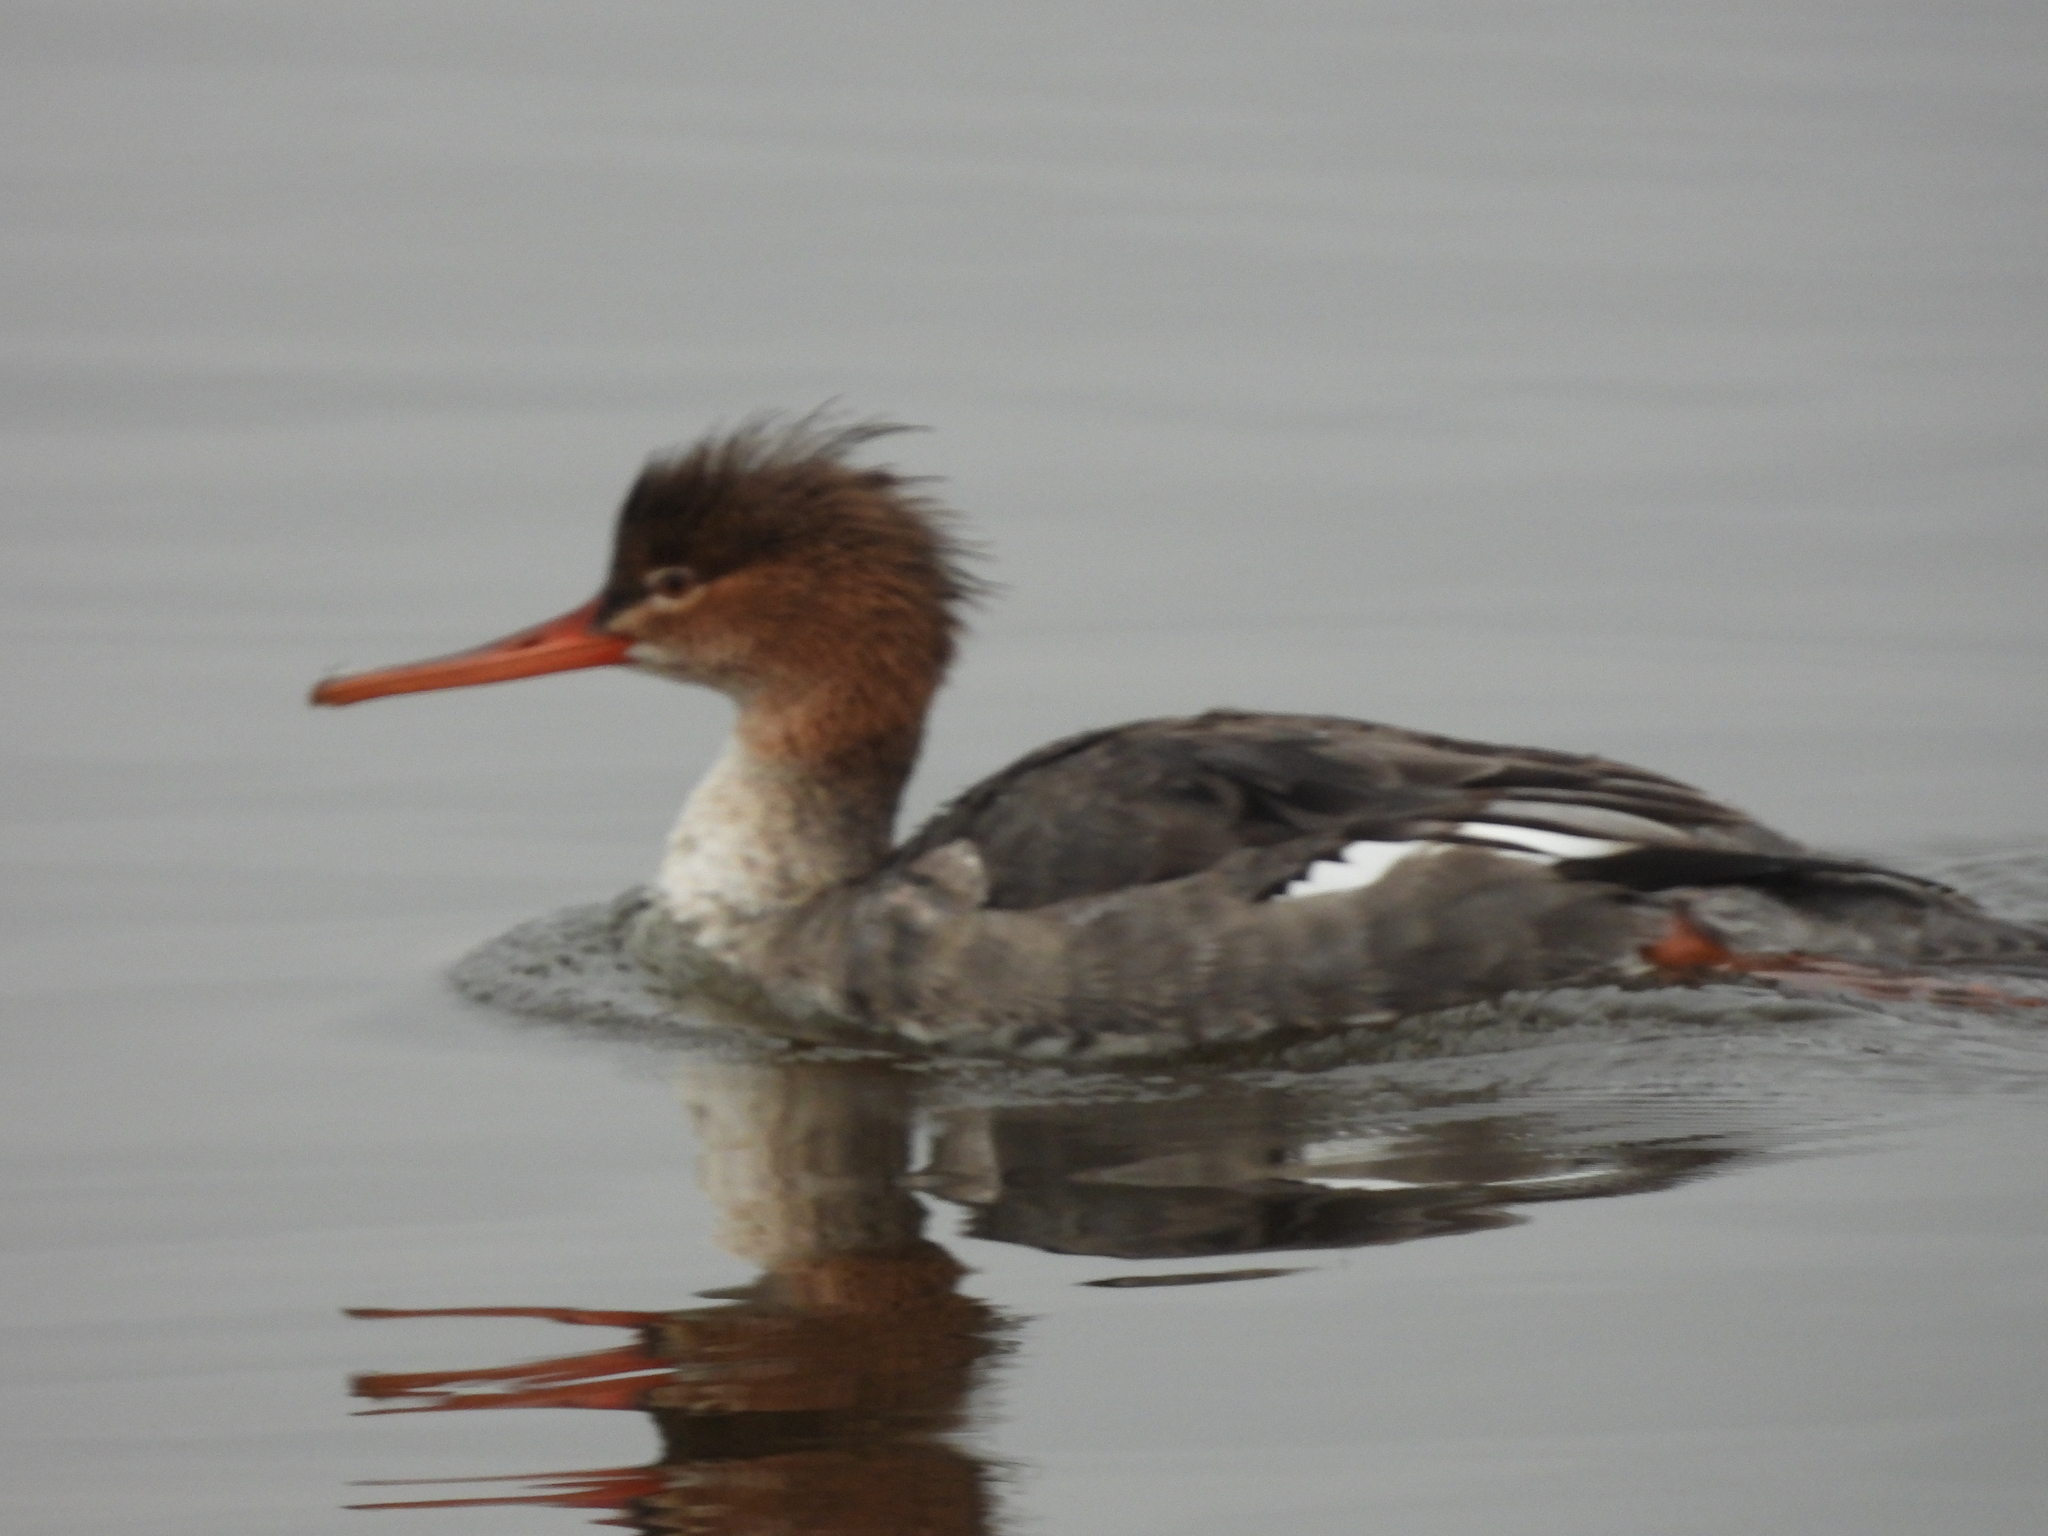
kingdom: Animalia
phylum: Chordata
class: Aves
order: Anseriformes
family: Anatidae
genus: Mergus
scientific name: Mergus serrator
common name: Red-breasted merganser
